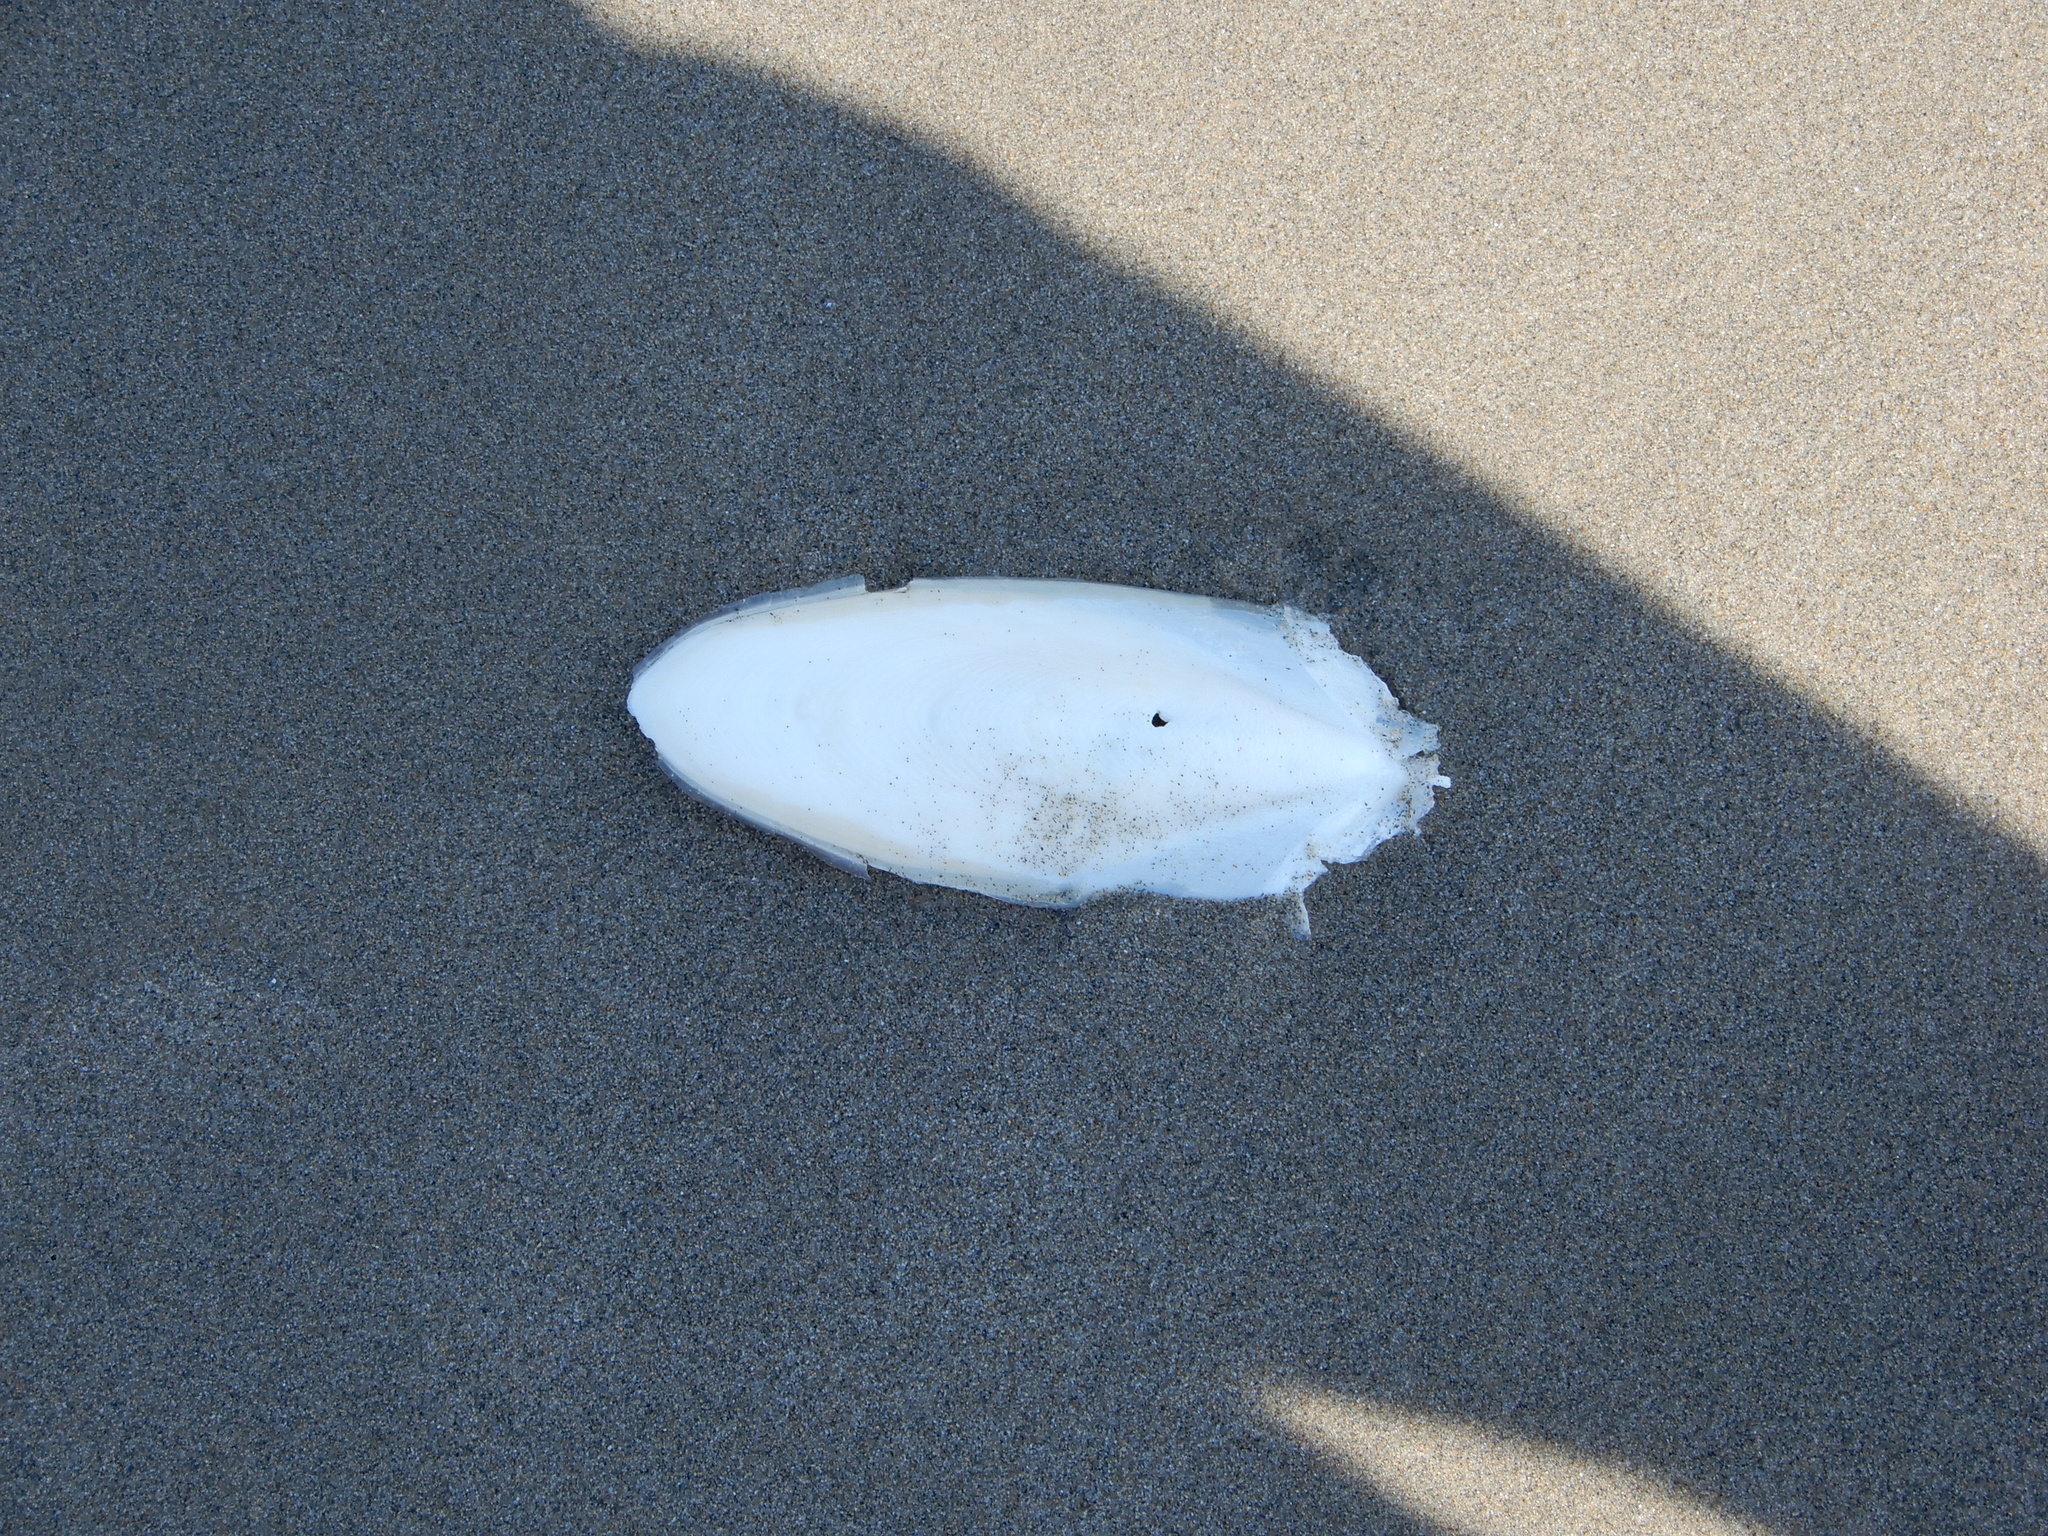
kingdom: Animalia
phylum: Mollusca
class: Cephalopoda
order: Sepiida
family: Sepiidae
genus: Sepia
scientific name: Sepia officinalis
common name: Common cuttlefish
